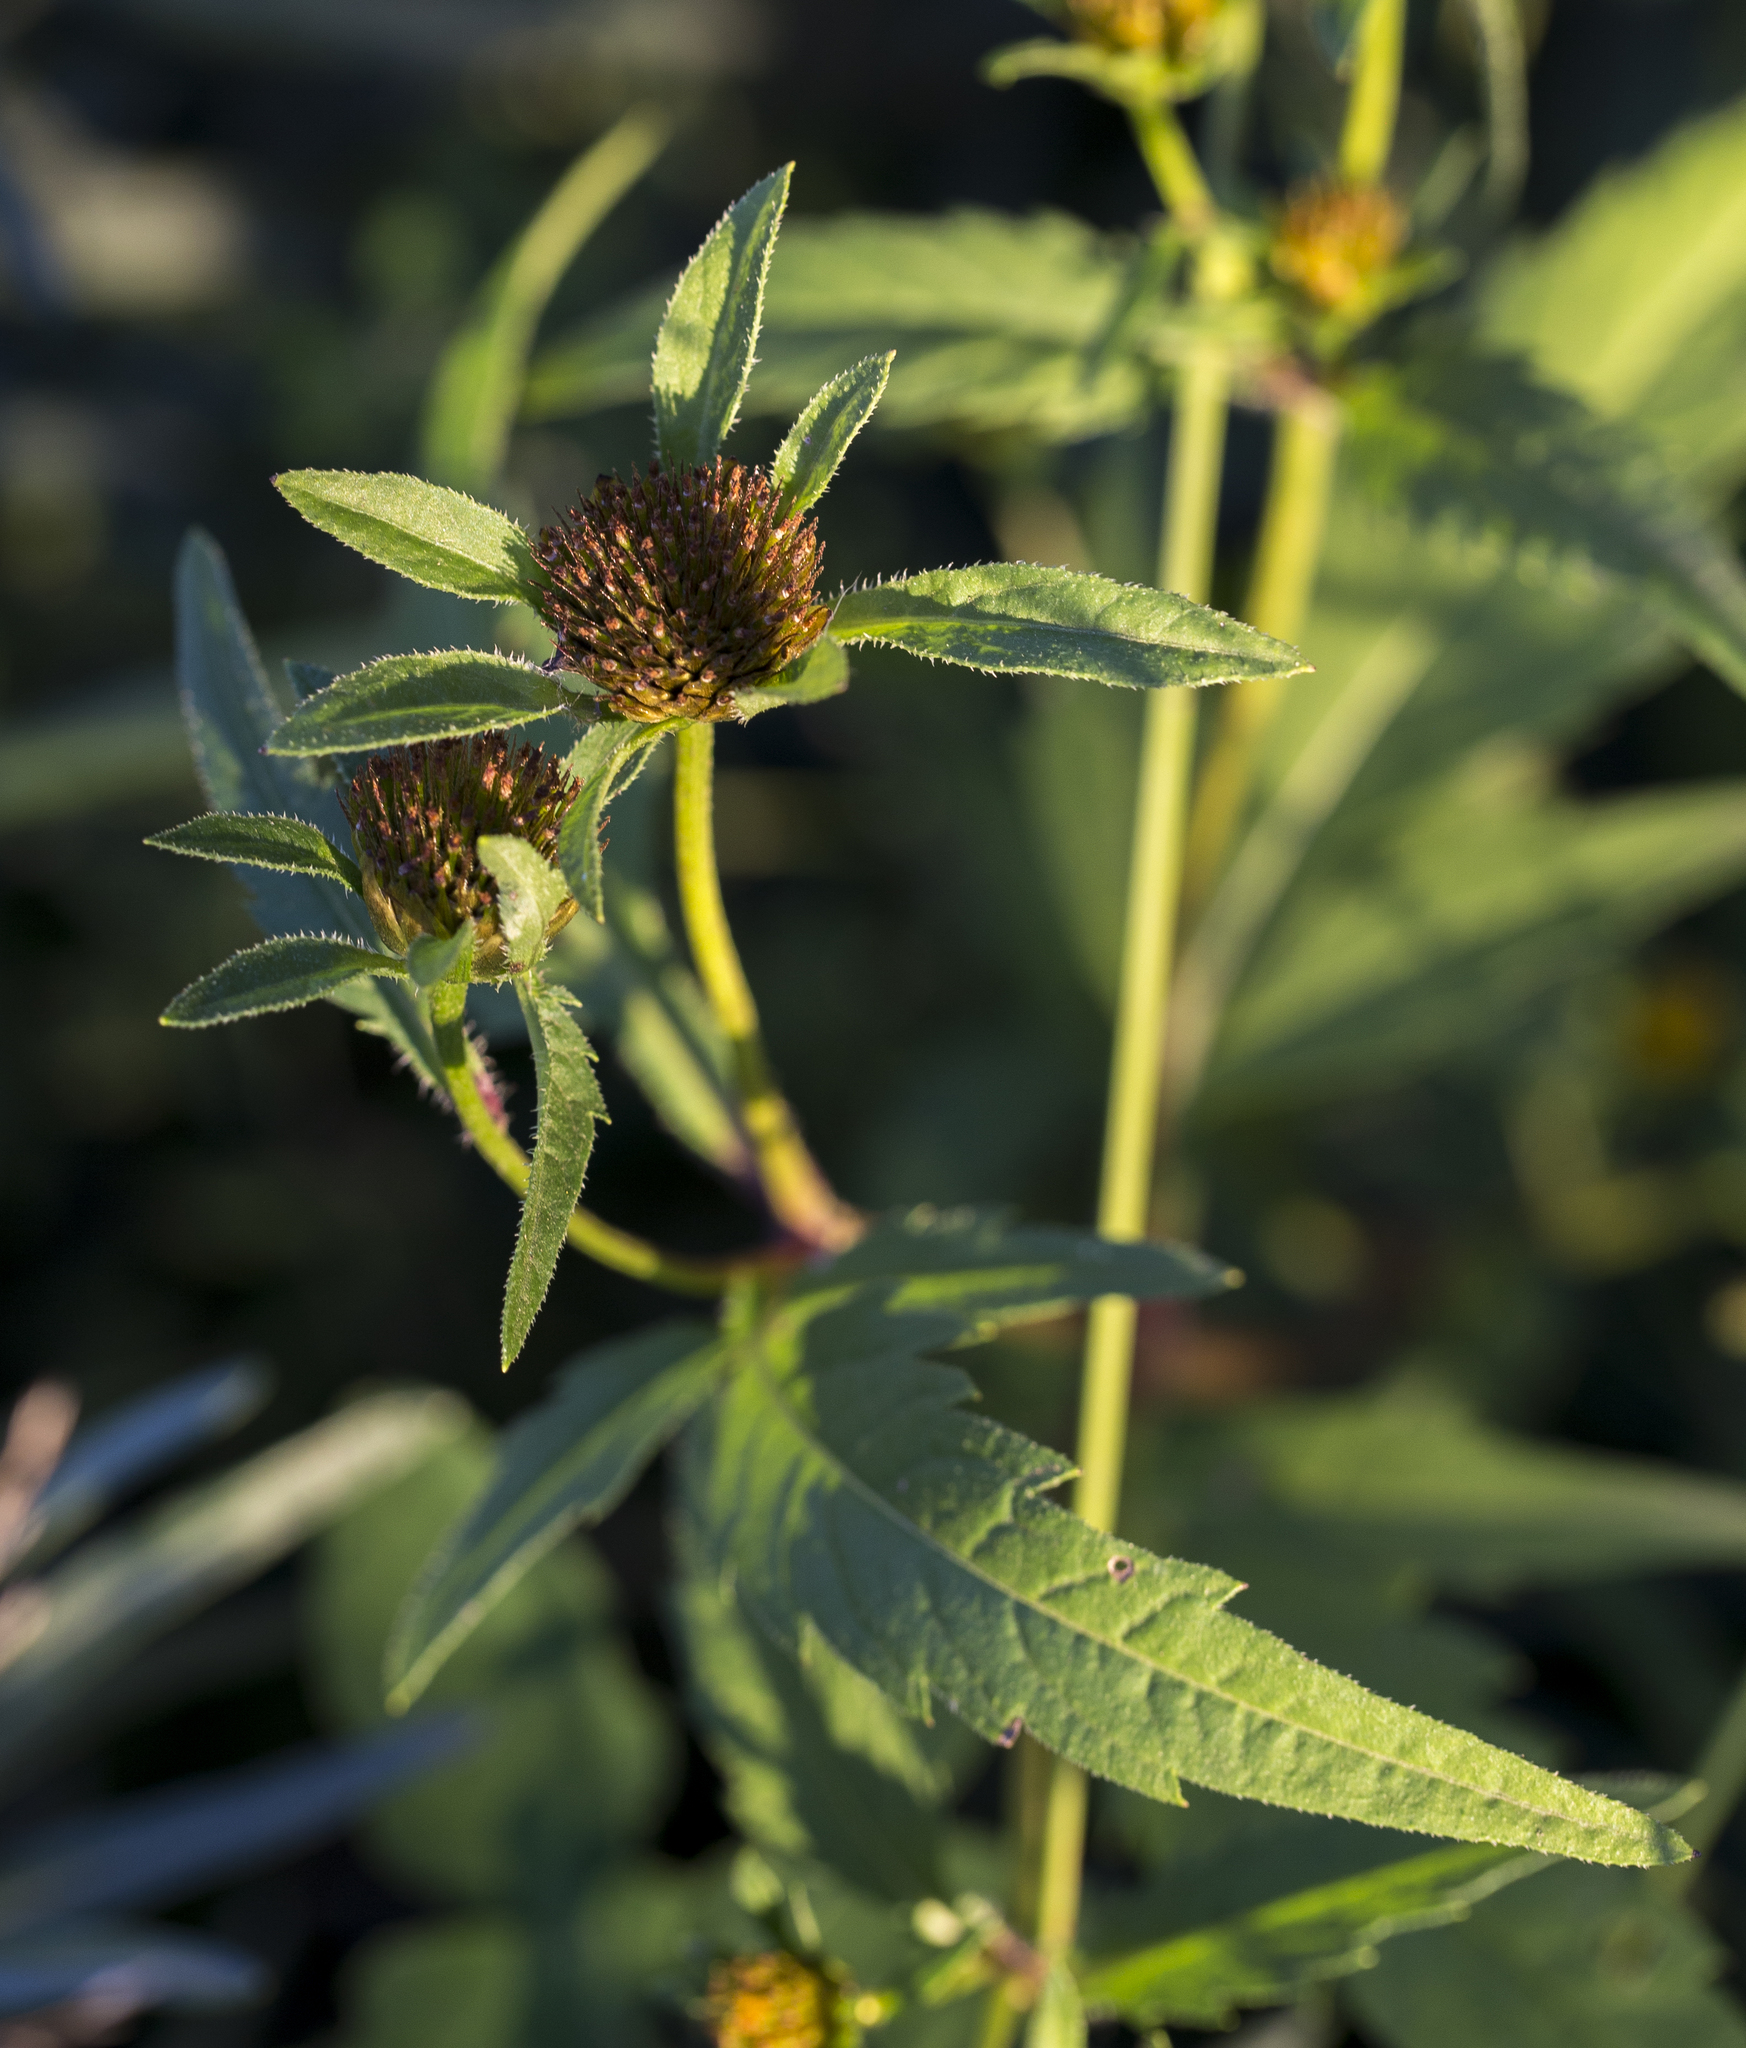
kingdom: Plantae
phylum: Tracheophyta
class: Magnoliopsida
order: Asterales
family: Asteraceae
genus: Bidens
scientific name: Bidens tripartita
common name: Trifid bur-marigold
